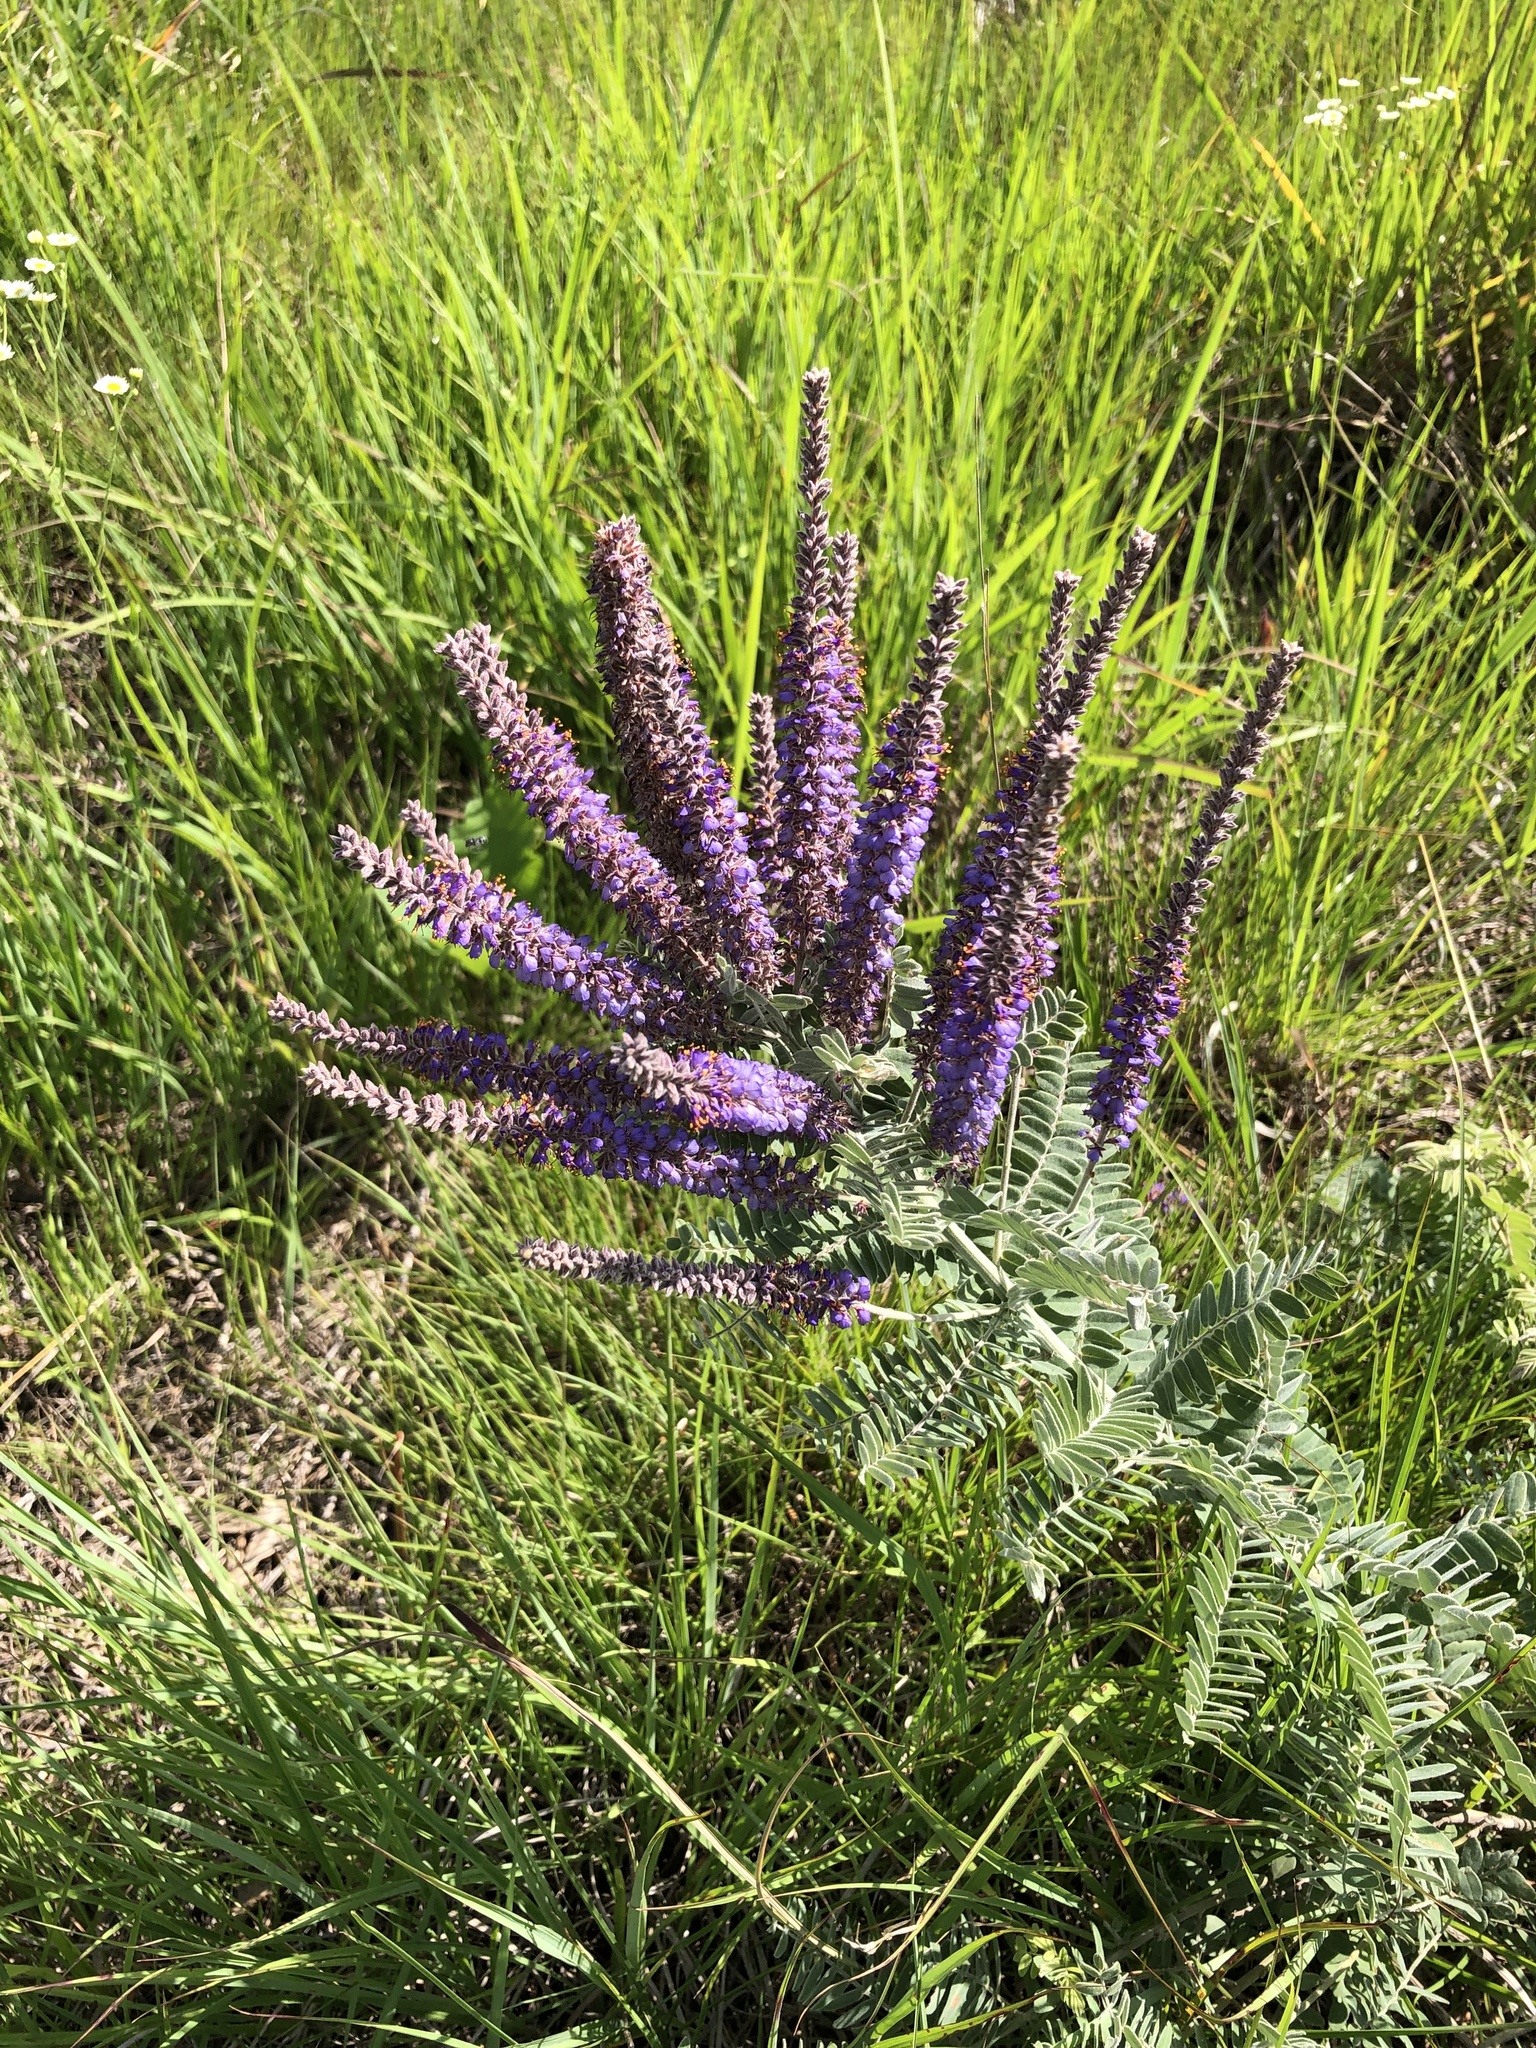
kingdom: Plantae
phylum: Tracheophyta
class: Magnoliopsida
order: Fabales
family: Fabaceae
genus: Amorpha
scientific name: Amorpha canescens
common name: Leadplant
